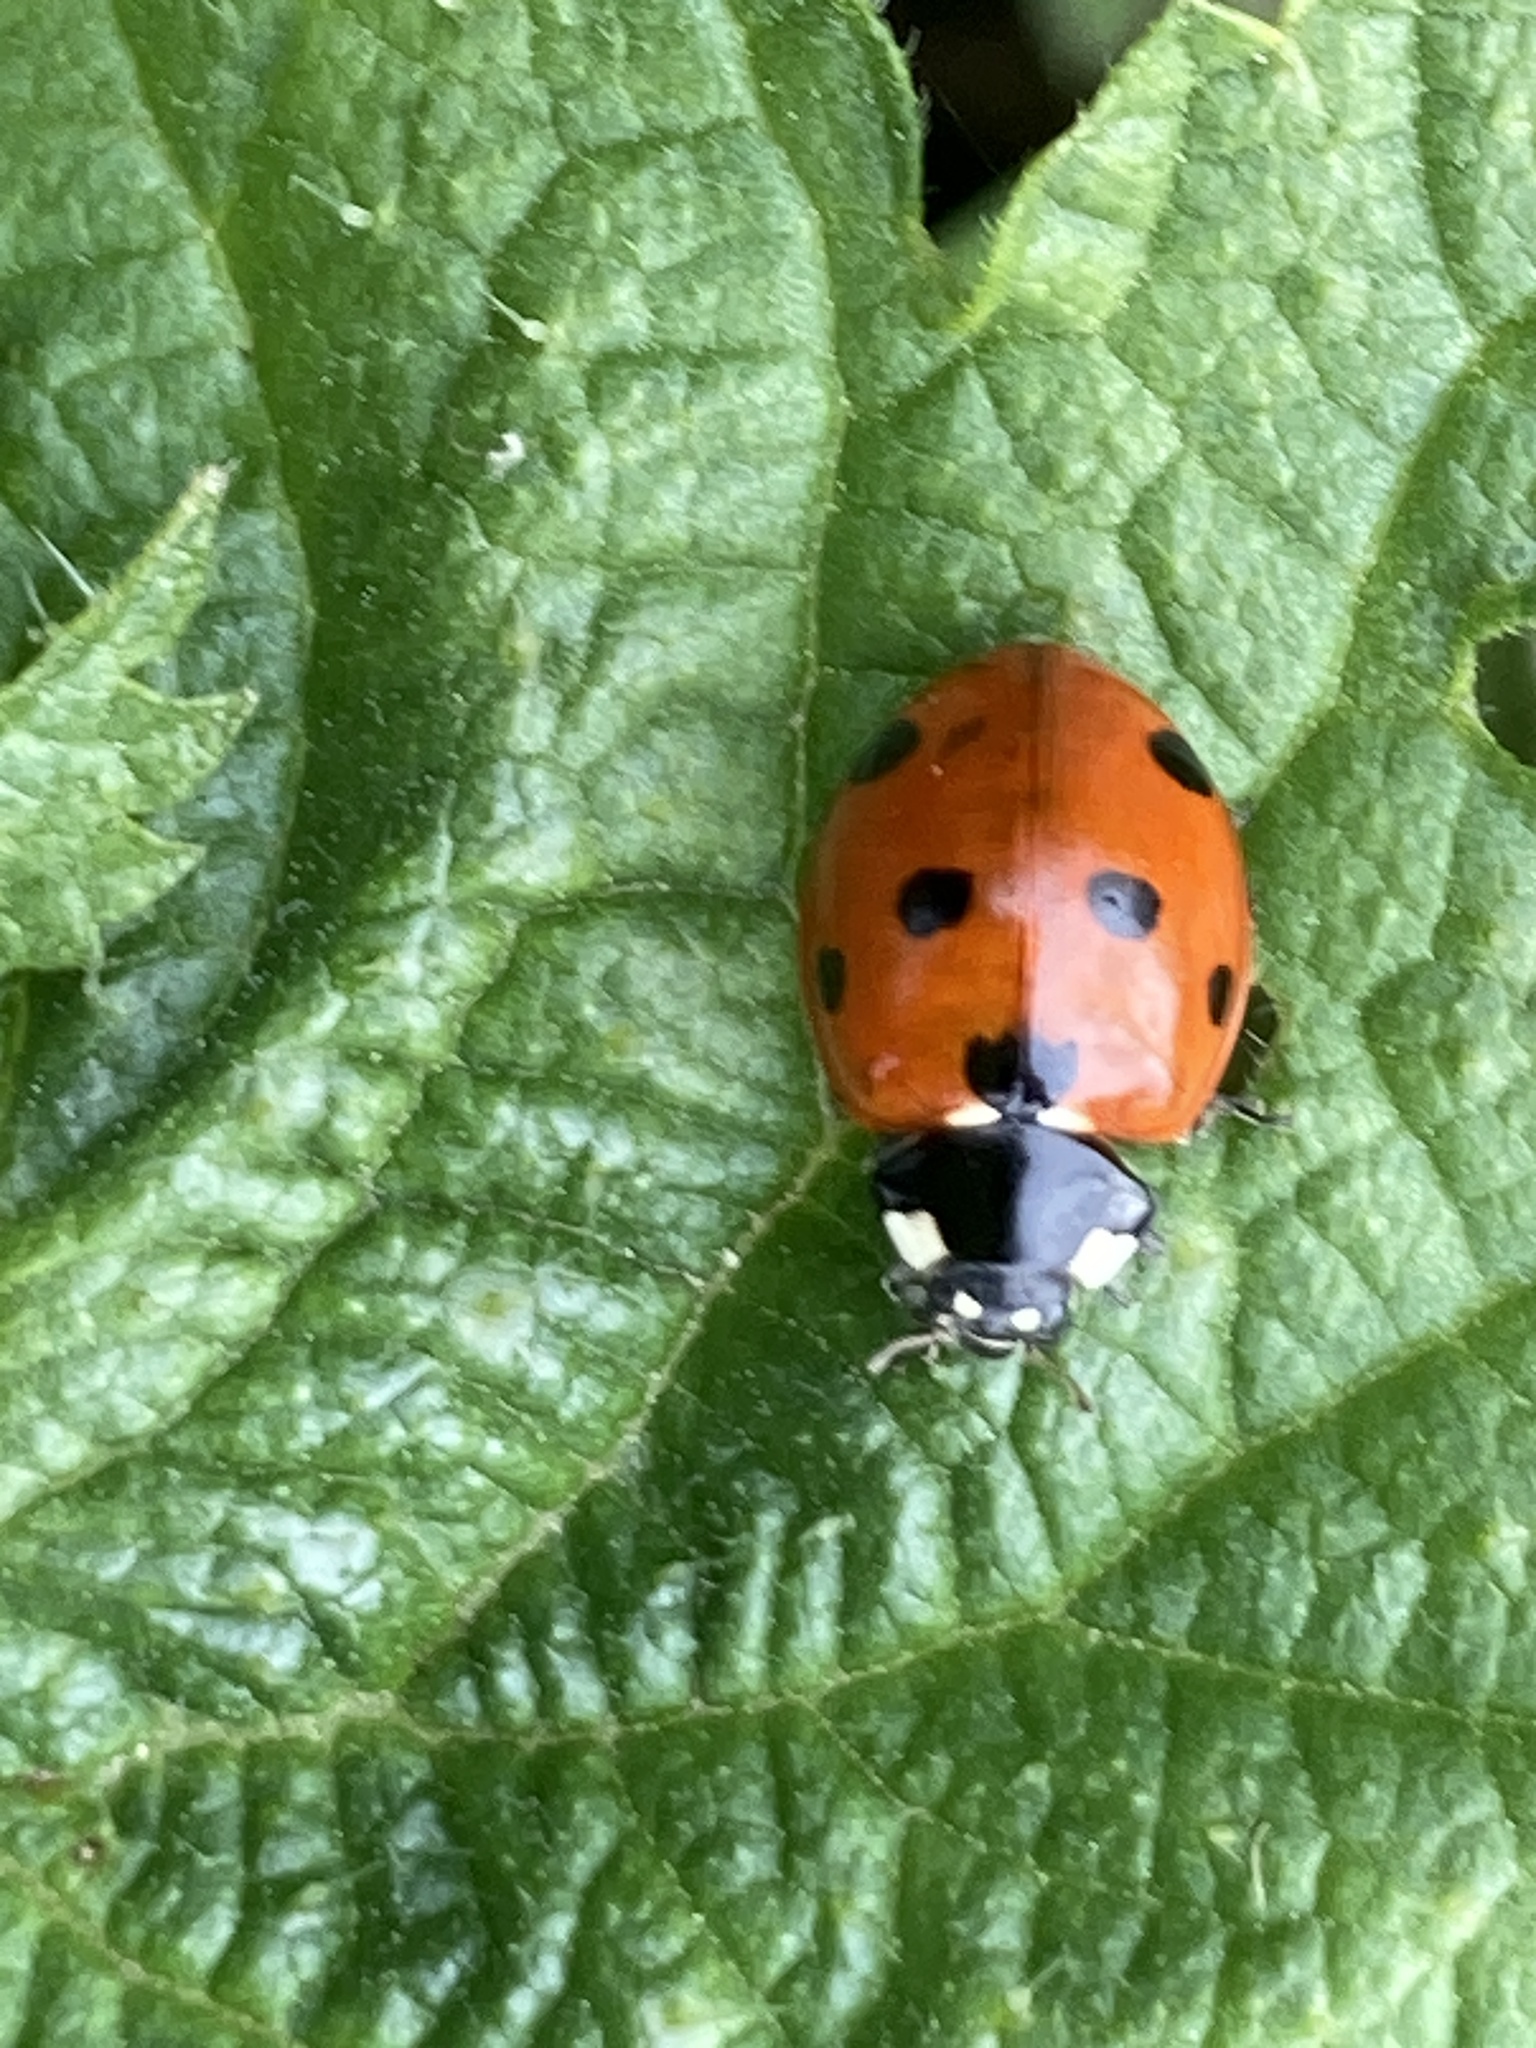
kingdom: Animalia
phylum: Arthropoda
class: Insecta
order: Coleoptera
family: Coccinellidae
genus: Coccinella
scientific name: Coccinella septempunctata
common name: Sevenspotted lady beetle
